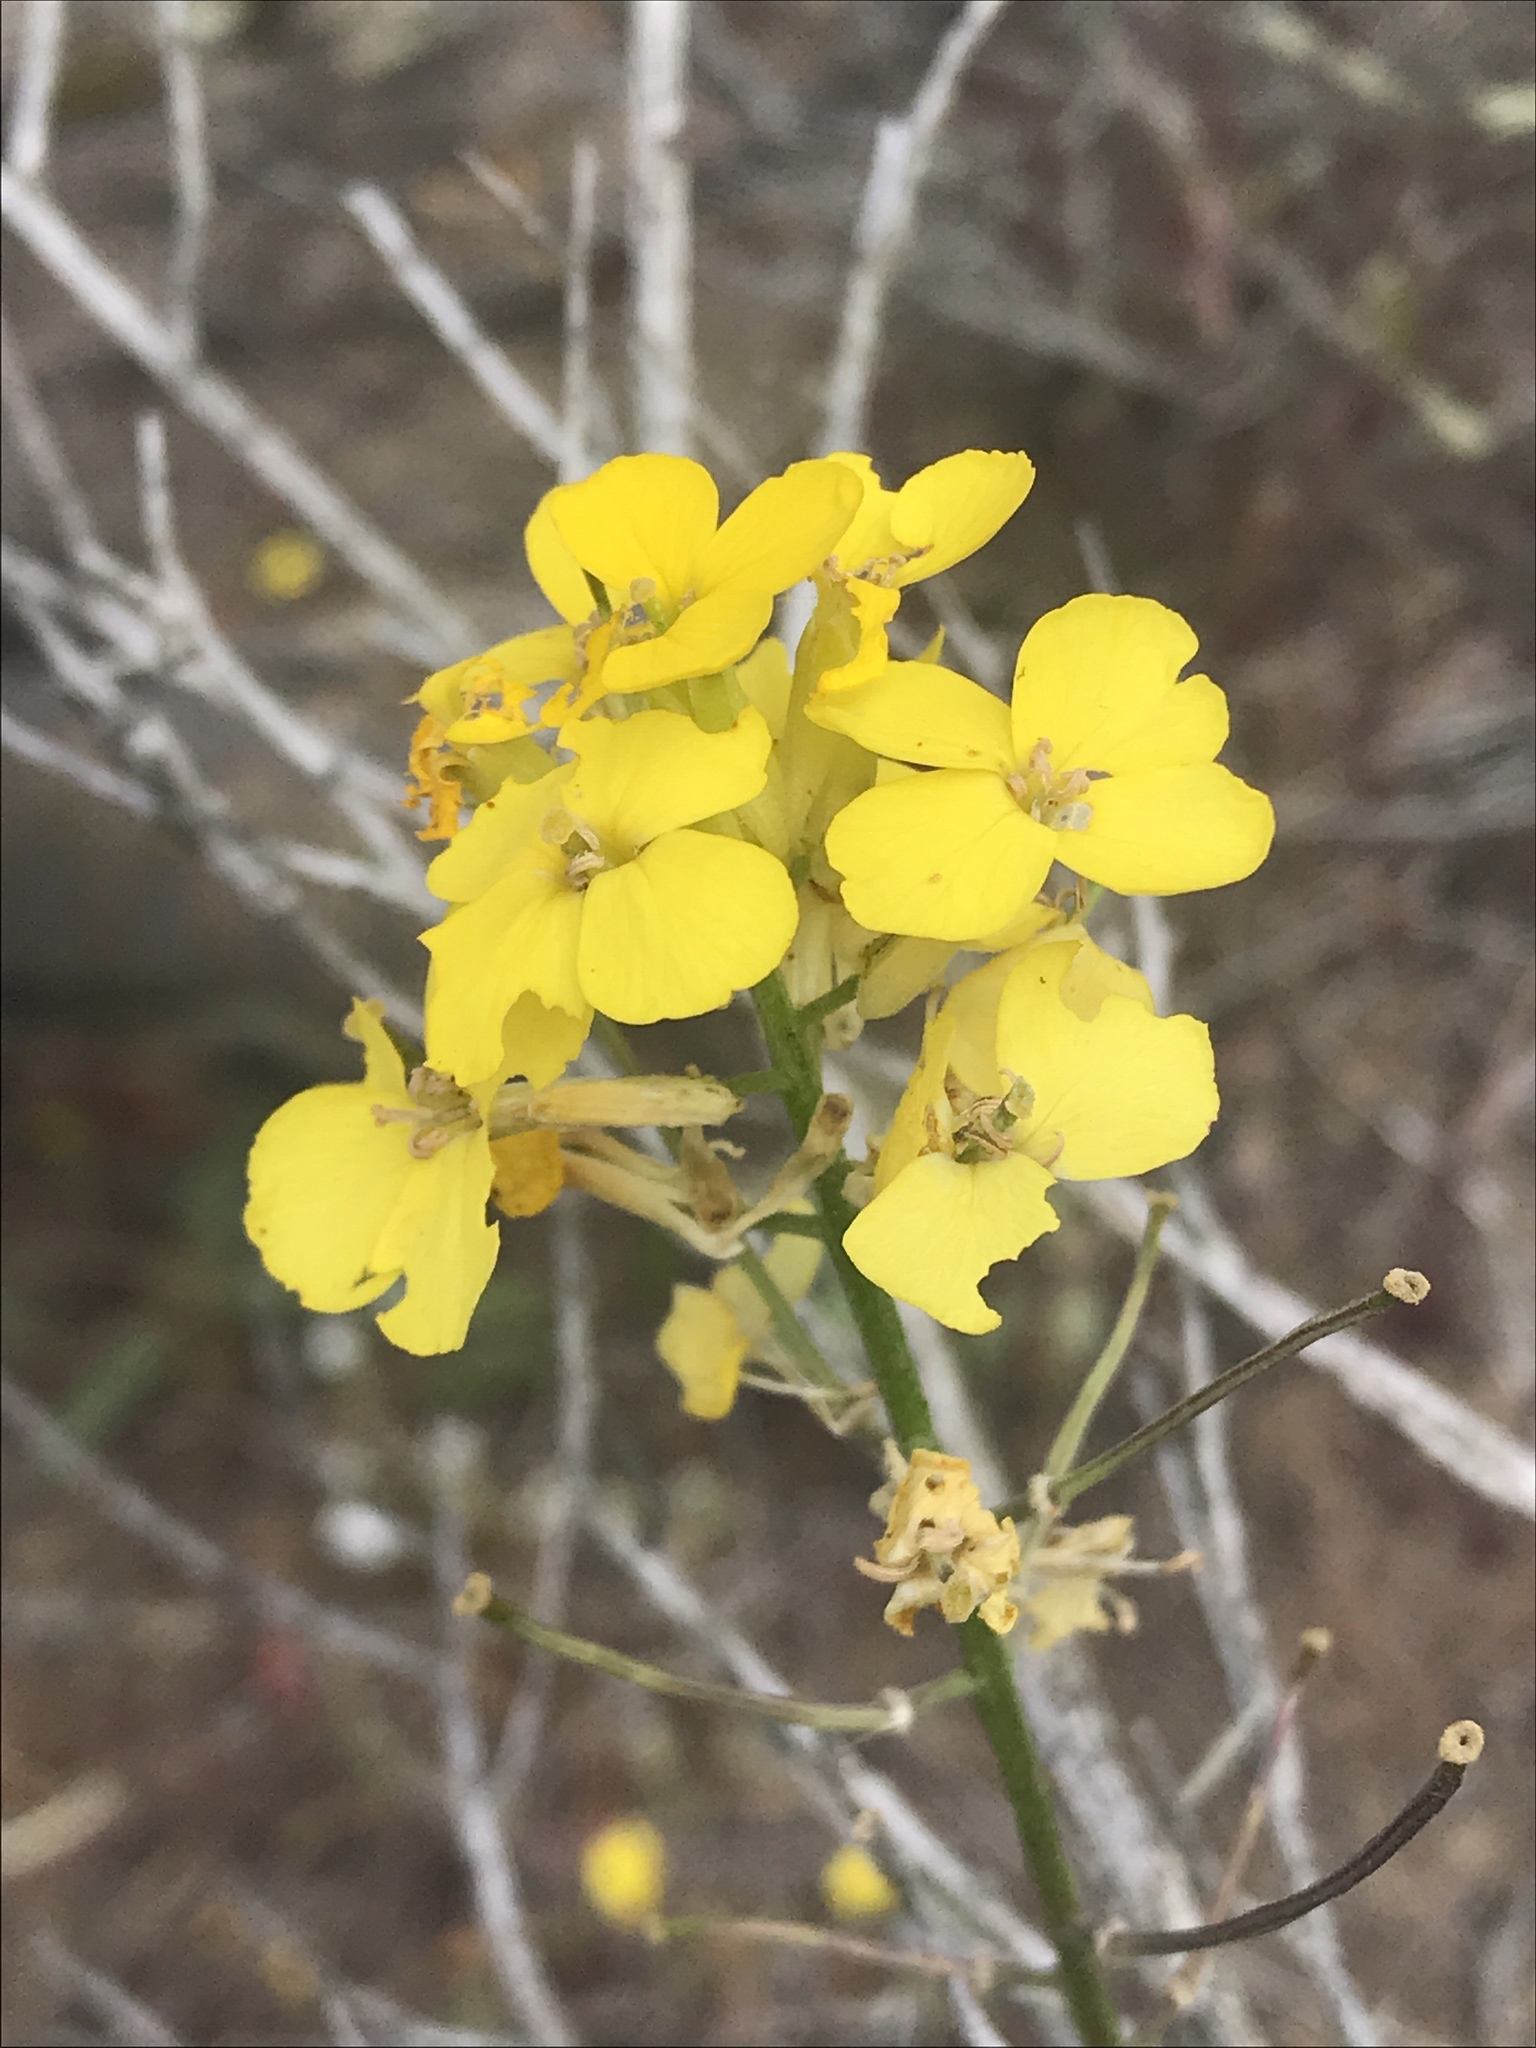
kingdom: Plantae
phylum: Tracheophyta
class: Magnoliopsida
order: Brassicales
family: Brassicaceae
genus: Erysimum
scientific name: Erysimum capitatum
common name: Western wallflower
